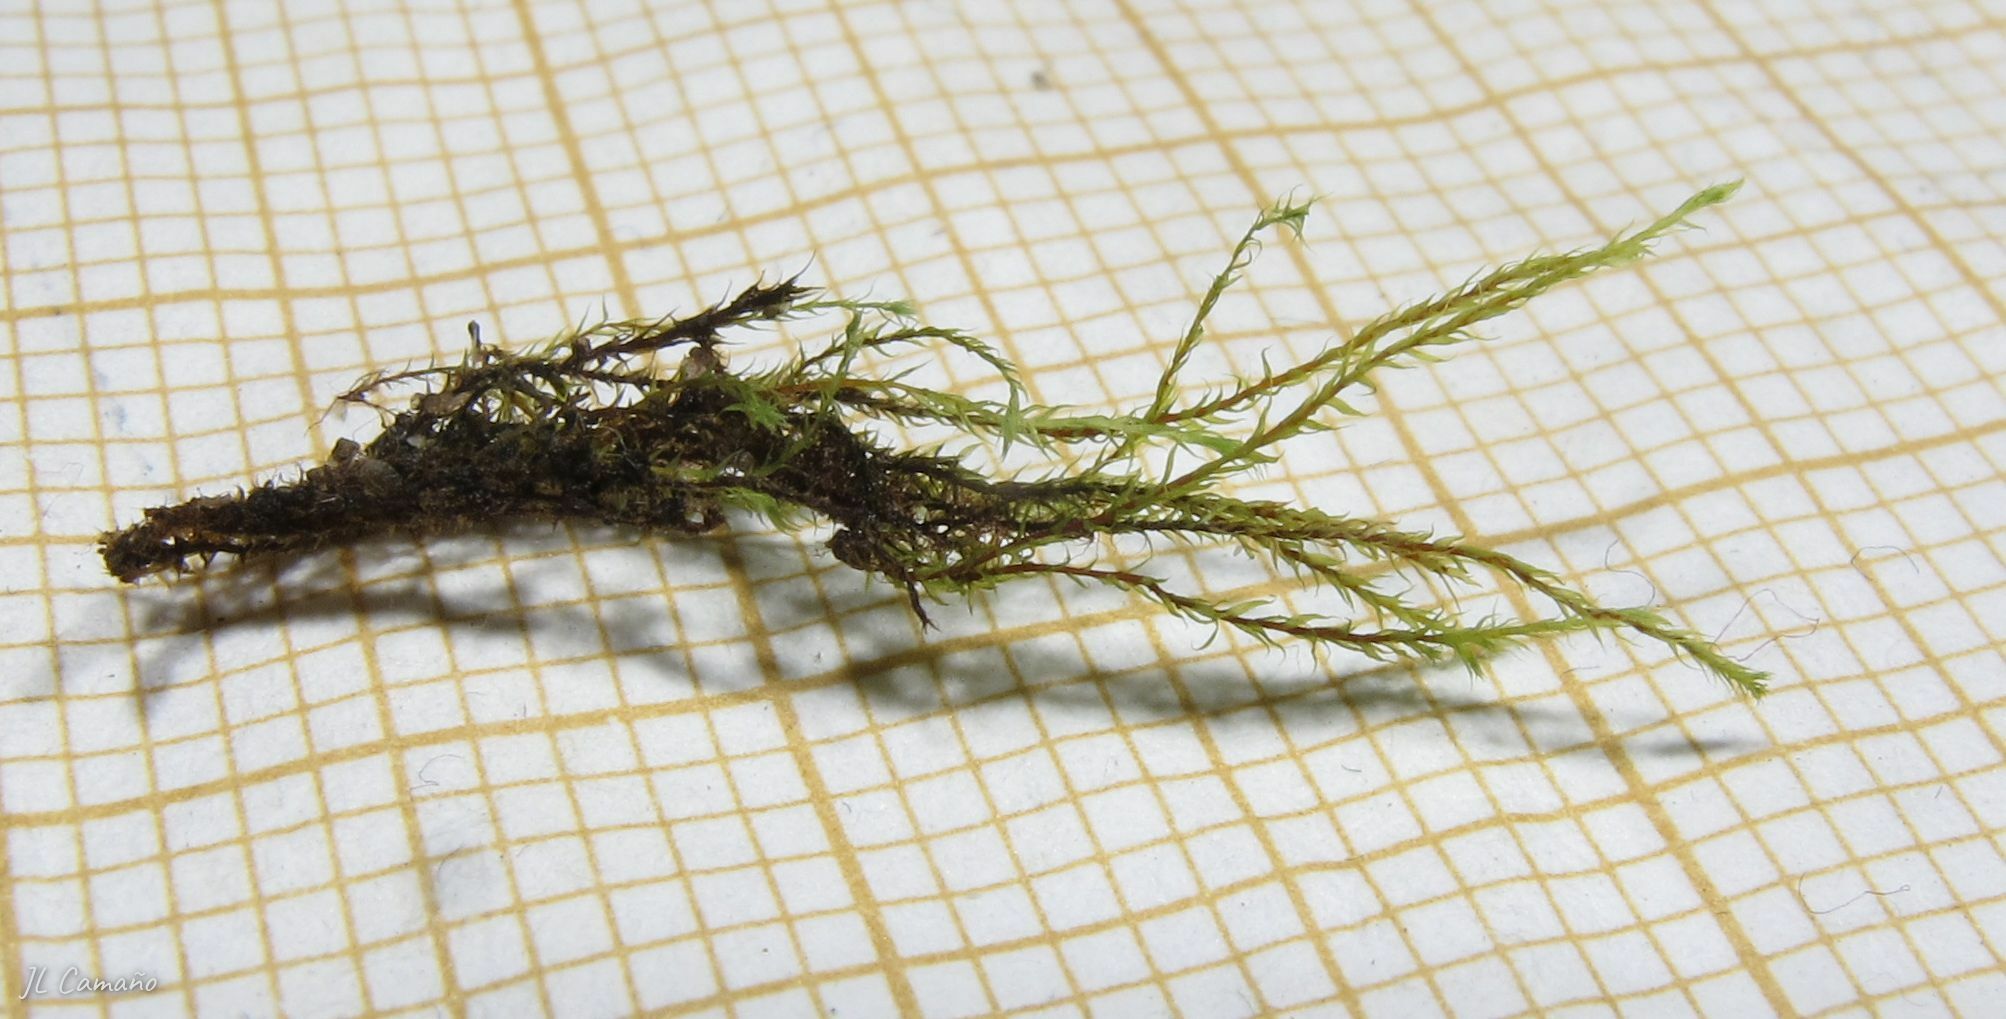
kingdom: Plantae
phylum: Bryophyta
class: Bryopsida
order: Bartramiales
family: Bartramiaceae
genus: Philonotis
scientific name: Philonotis capillaris
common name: Arnell's apple-moss
